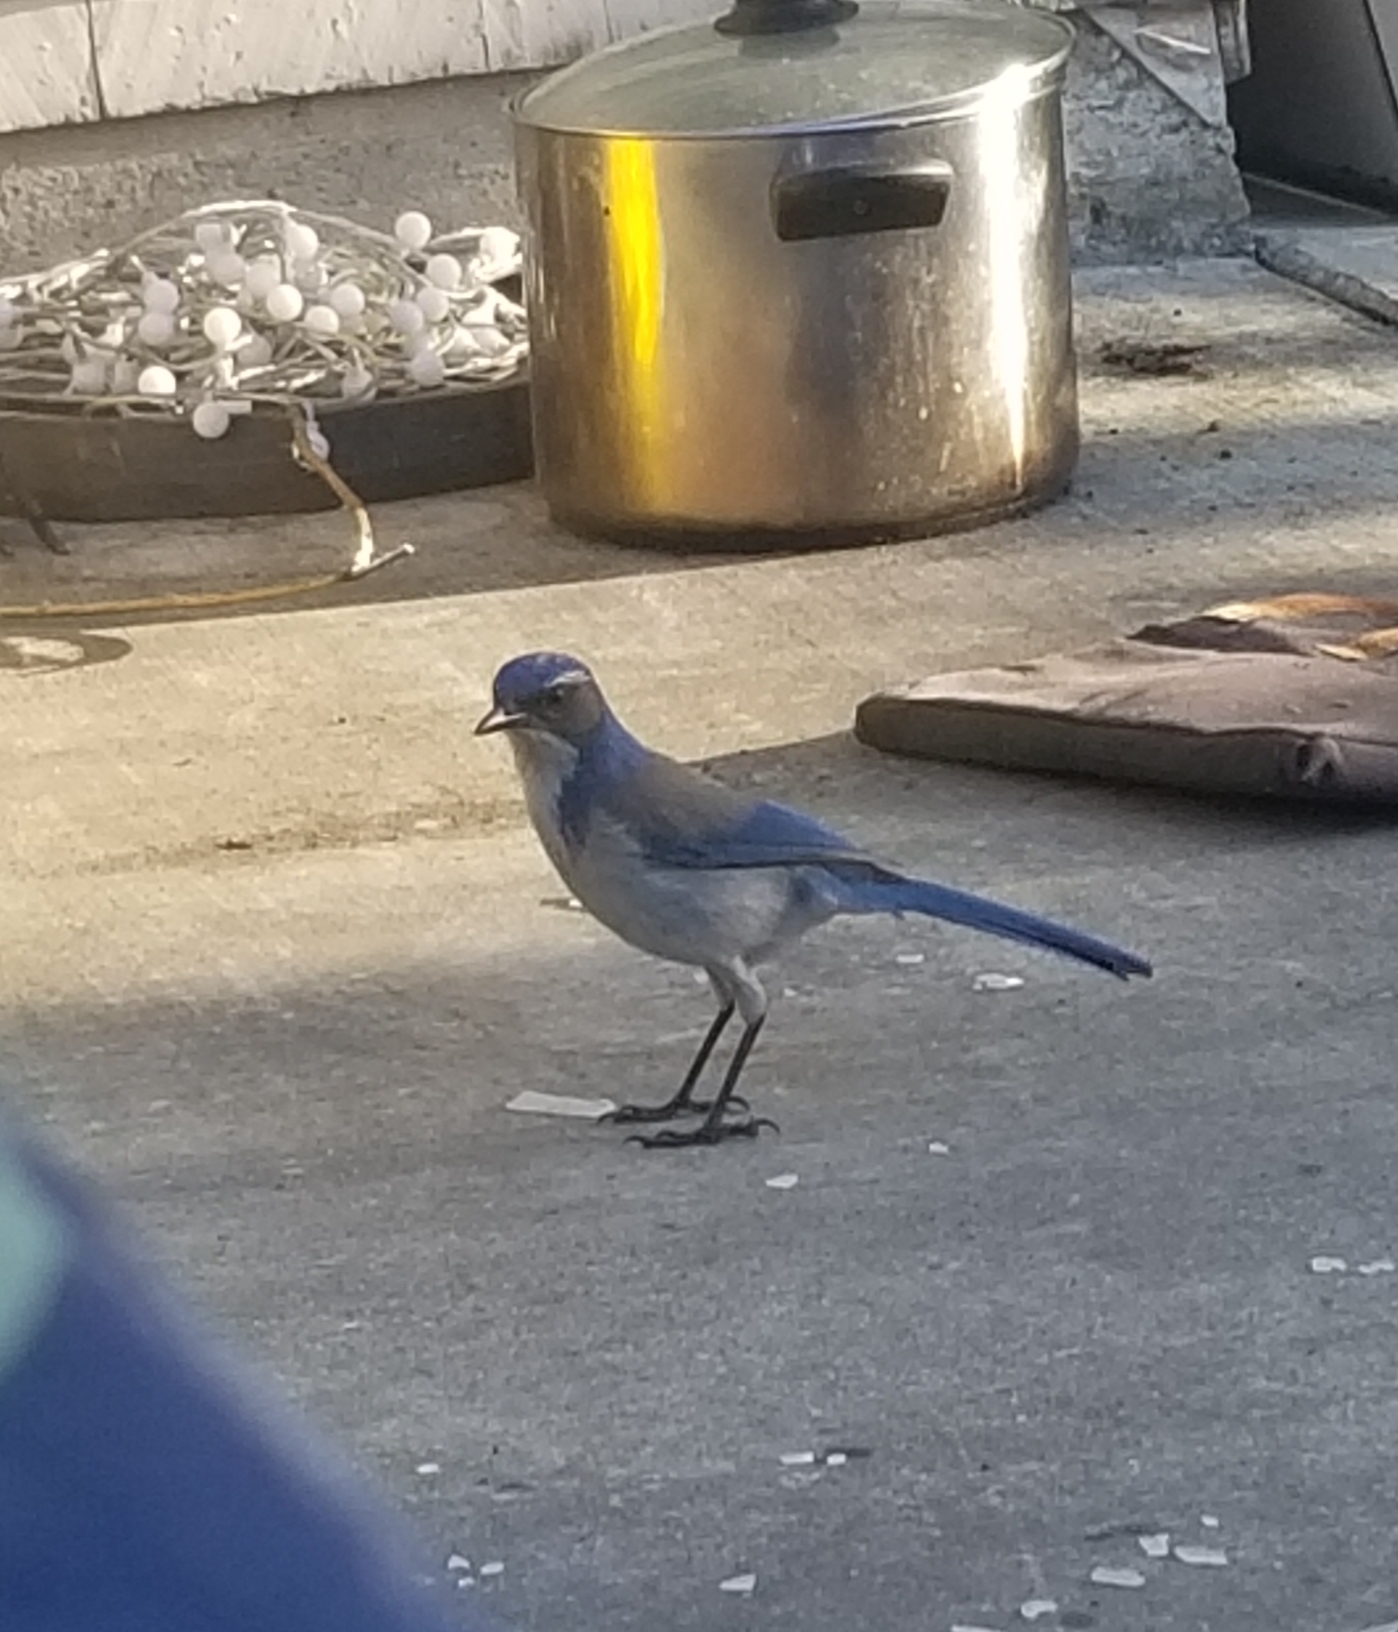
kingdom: Animalia
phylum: Chordata
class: Aves
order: Passeriformes
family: Corvidae
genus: Aphelocoma
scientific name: Aphelocoma californica
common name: California scrub-jay
